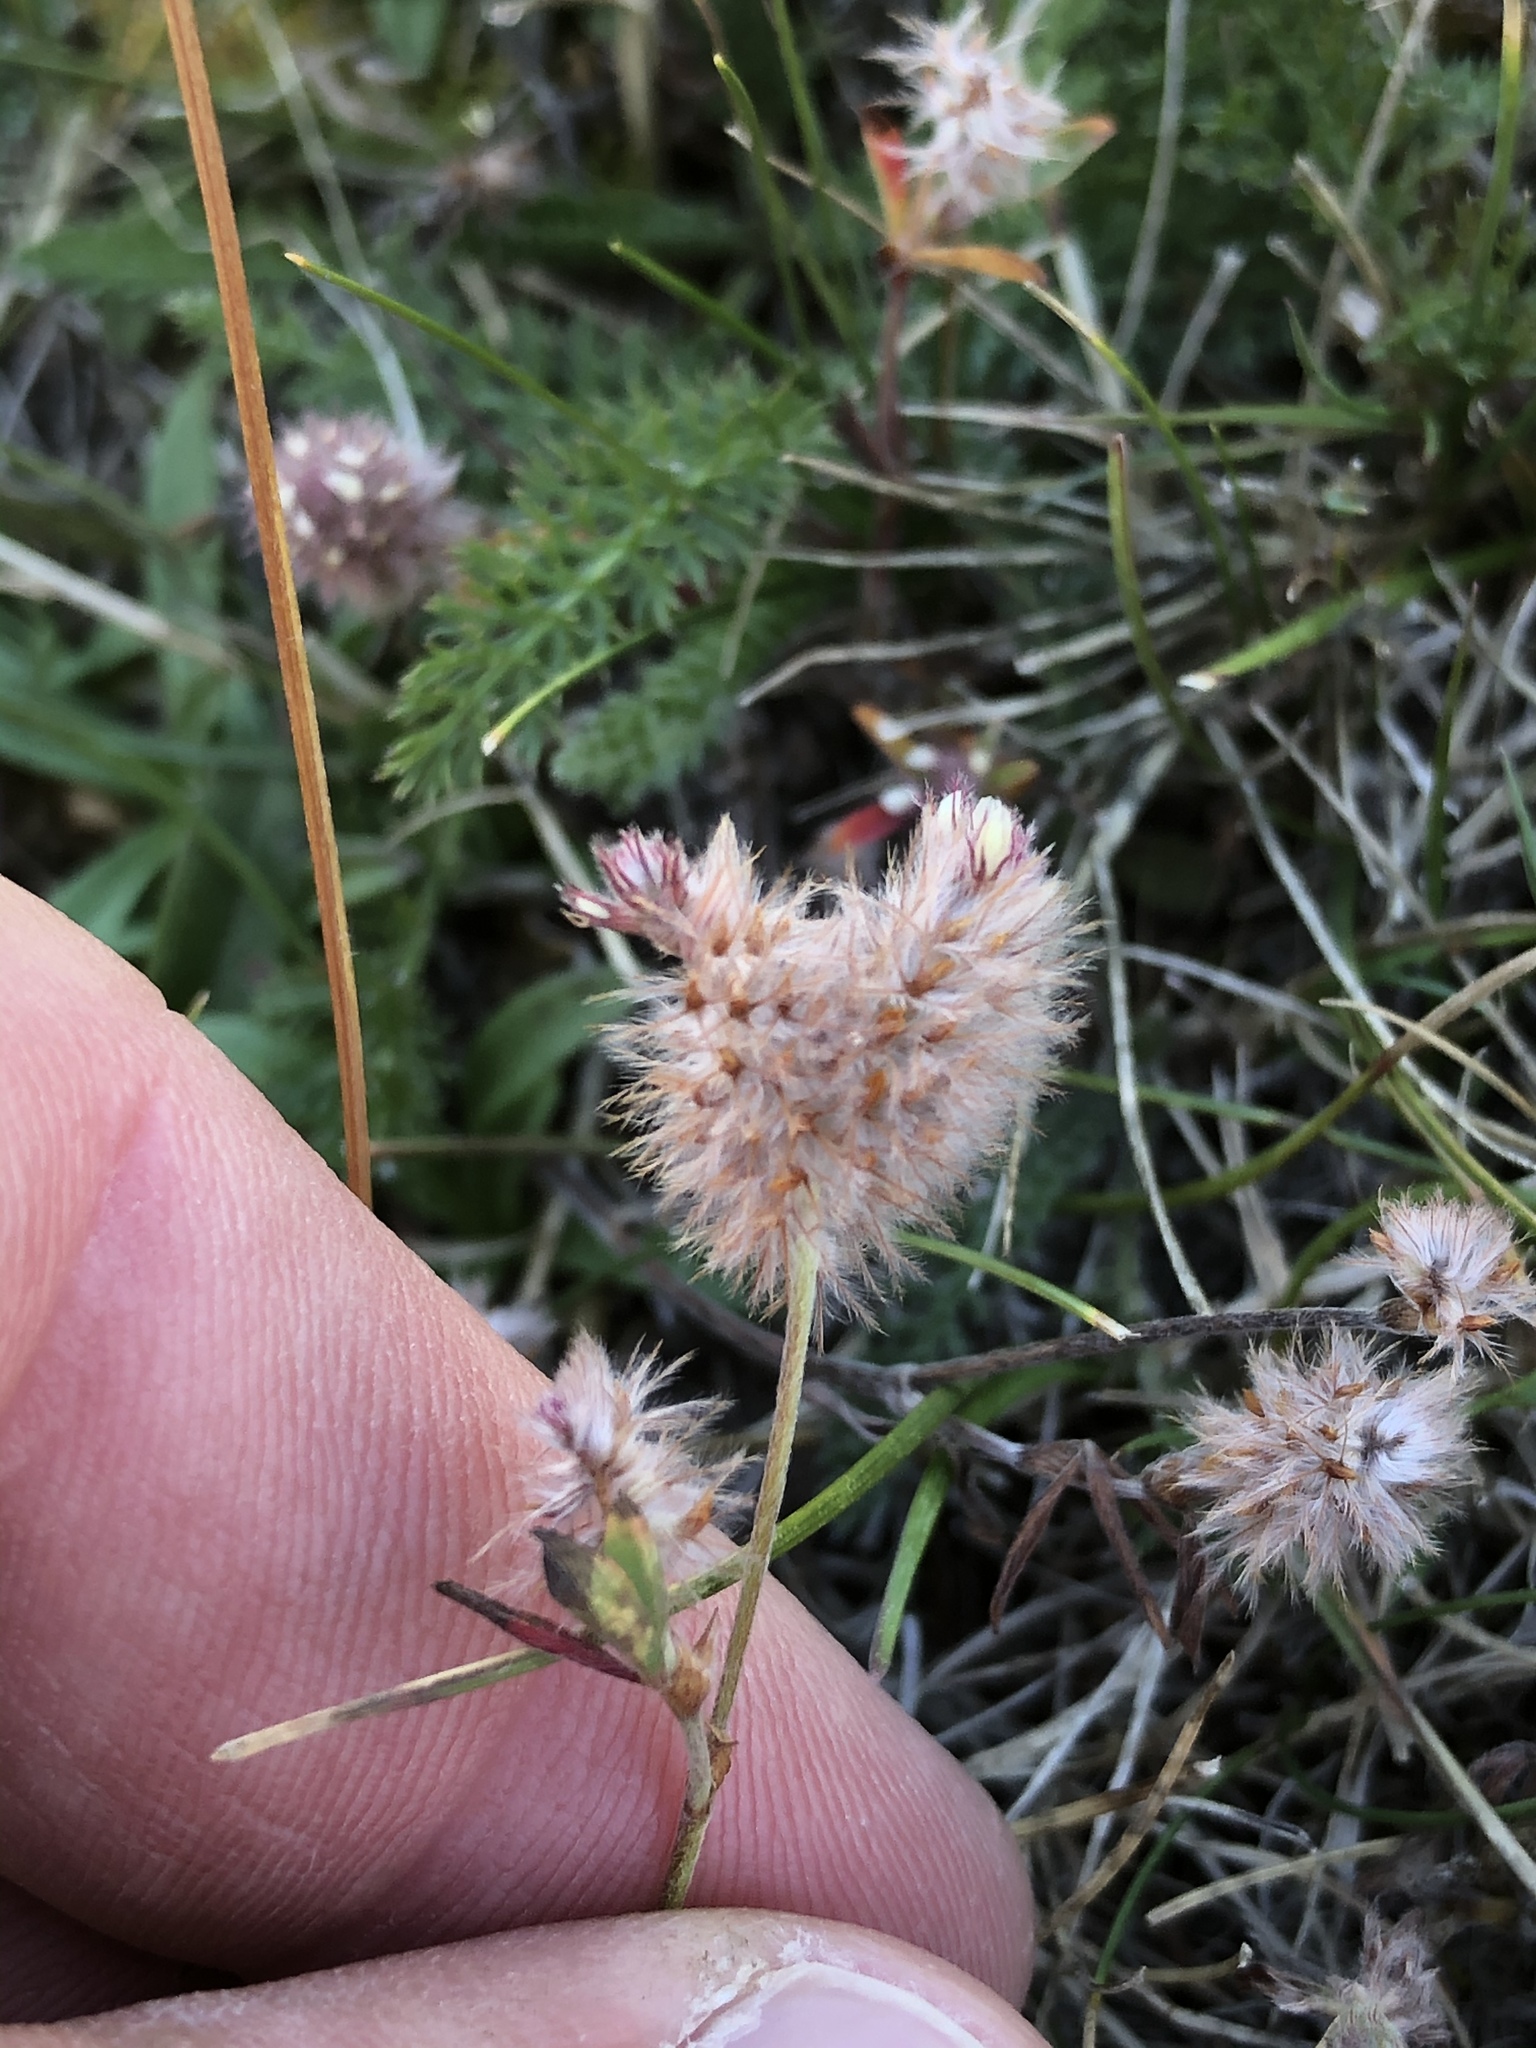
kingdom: Plantae
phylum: Tracheophyta
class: Magnoliopsida
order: Fabales
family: Fabaceae
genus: Trifolium
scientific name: Trifolium fragiferum
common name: Strawberry clover
